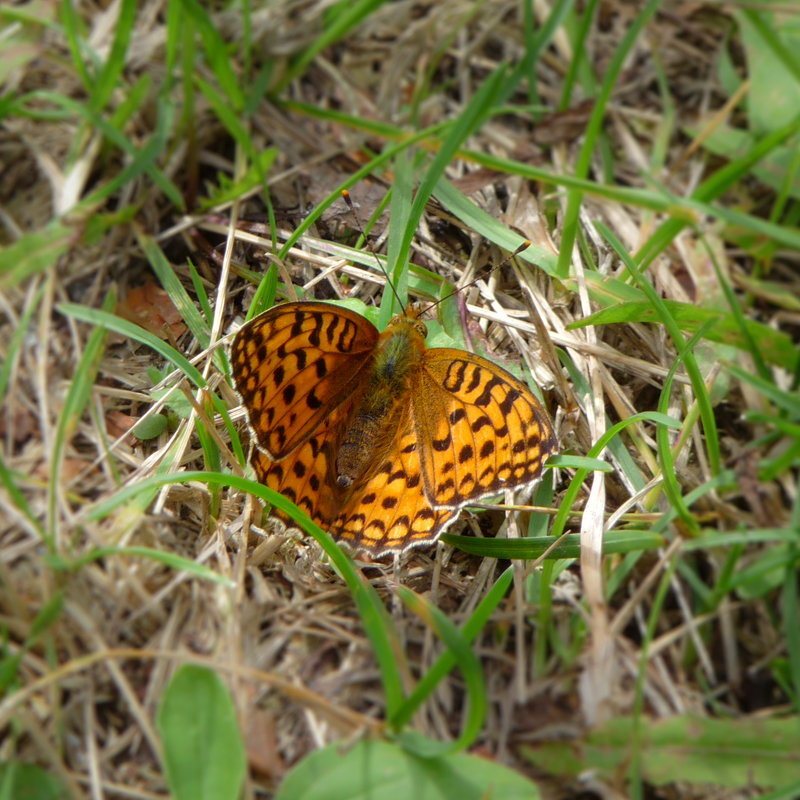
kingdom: Animalia
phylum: Arthropoda
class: Insecta
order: Lepidoptera
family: Nymphalidae
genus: Fabriciana
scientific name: Fabriciana adippe
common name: High brown fritillary
